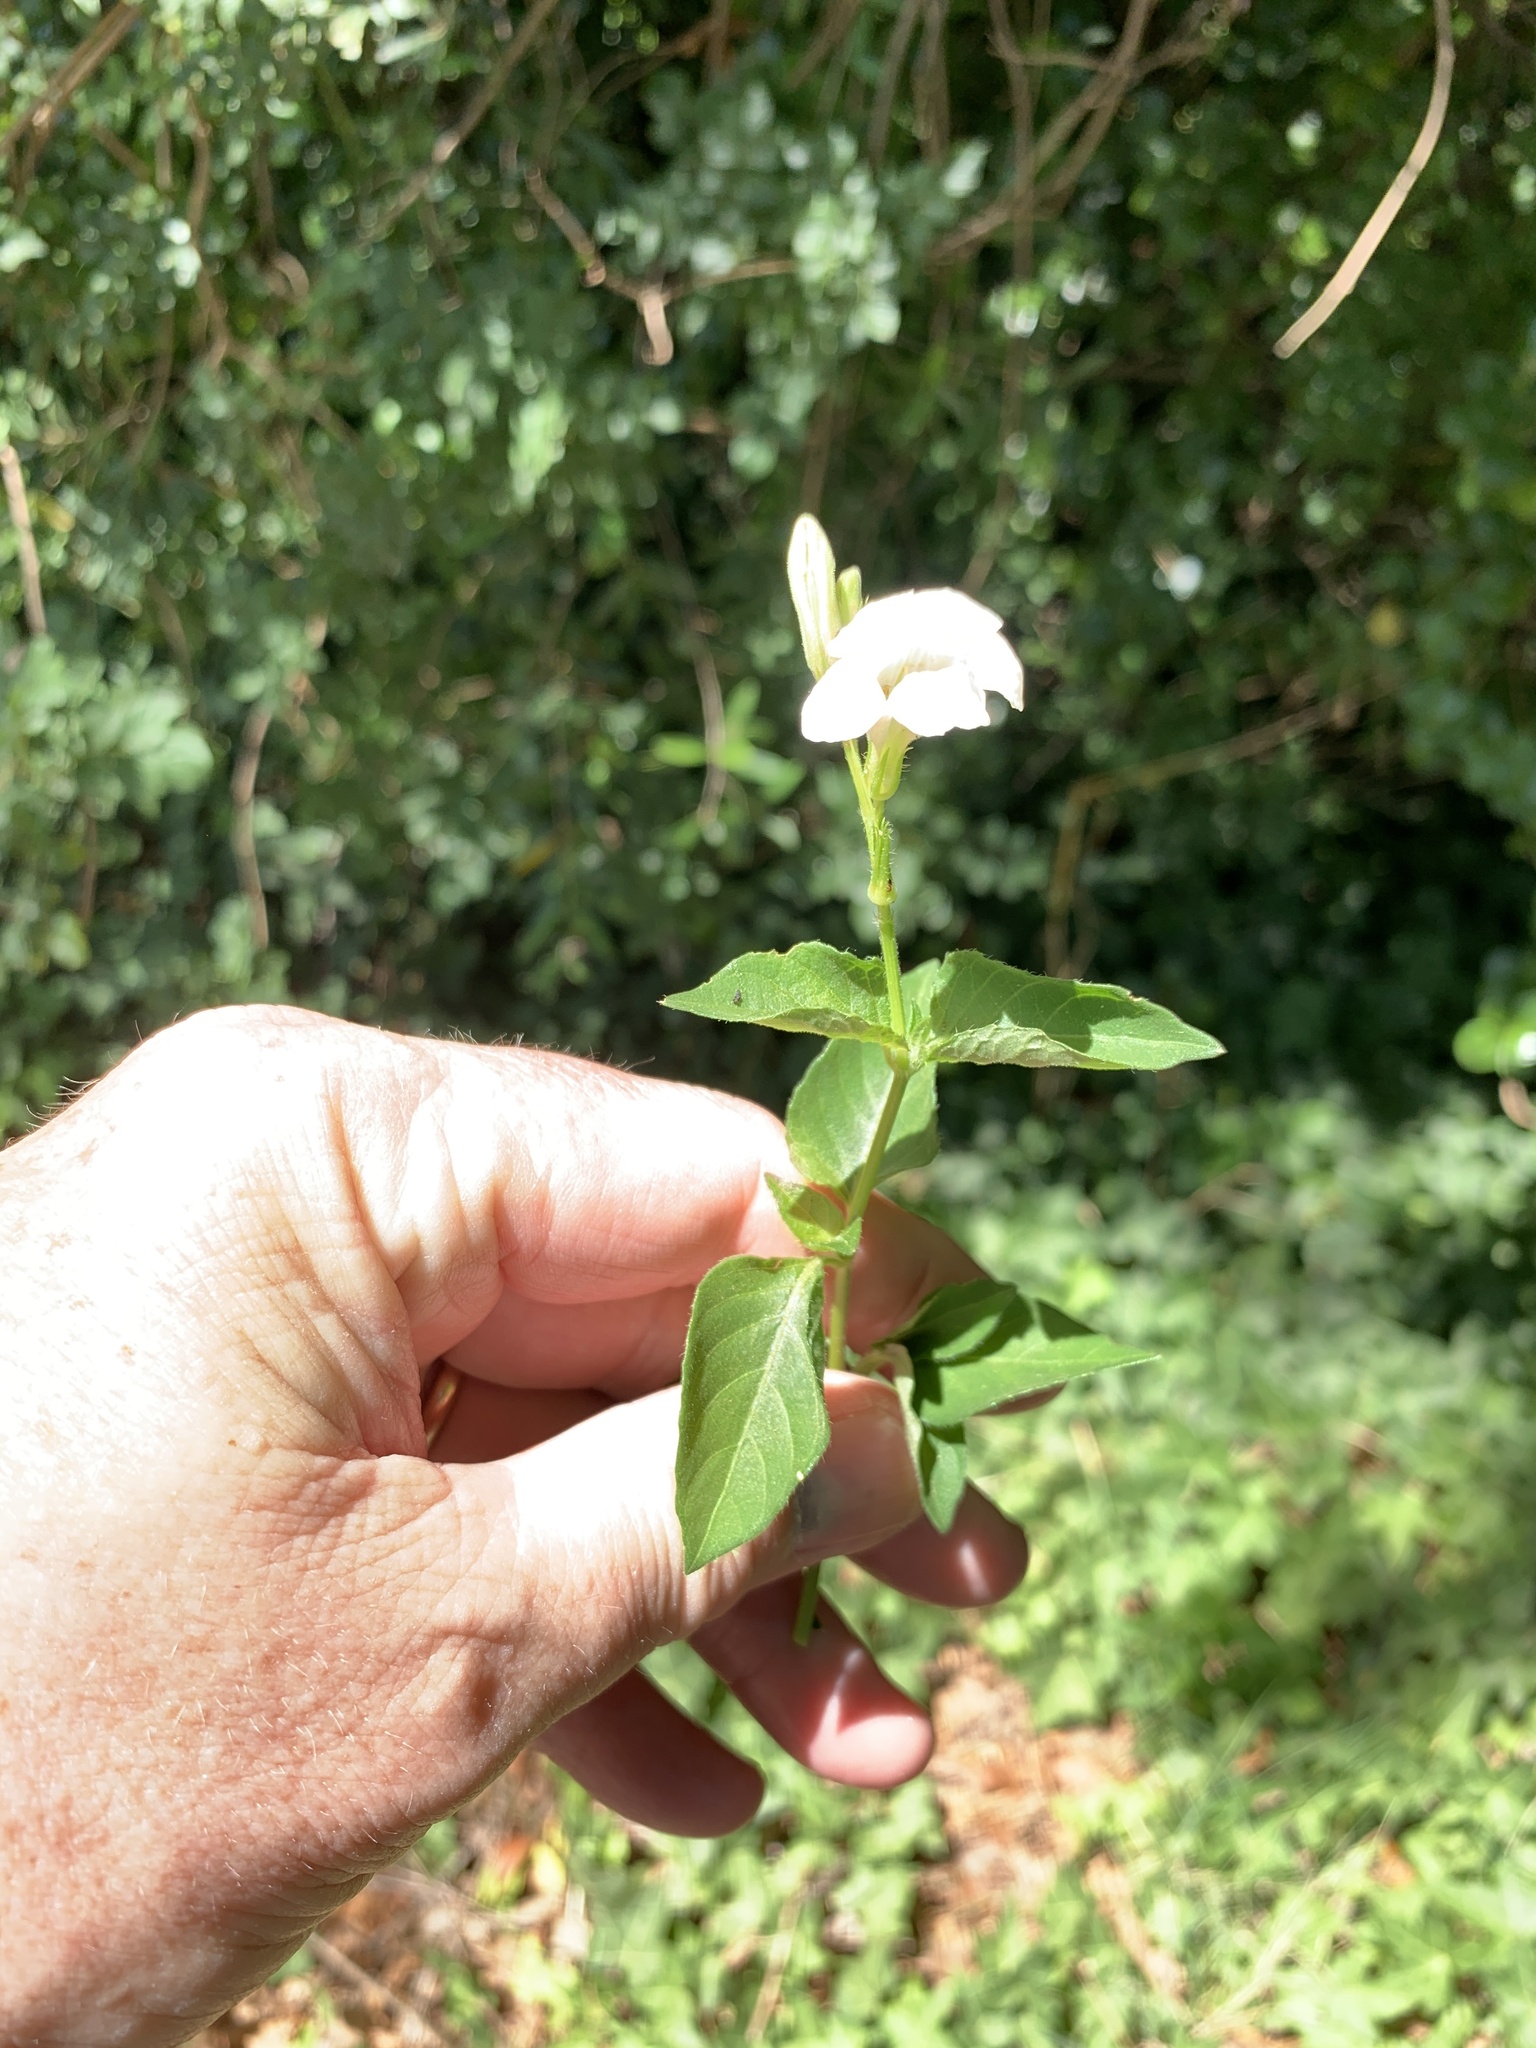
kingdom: Plantae
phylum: Tracheophyta
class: Magnoliopsida
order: Lamiales
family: Acanthaceae
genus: Asystasia
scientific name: Asystasia intrusa
